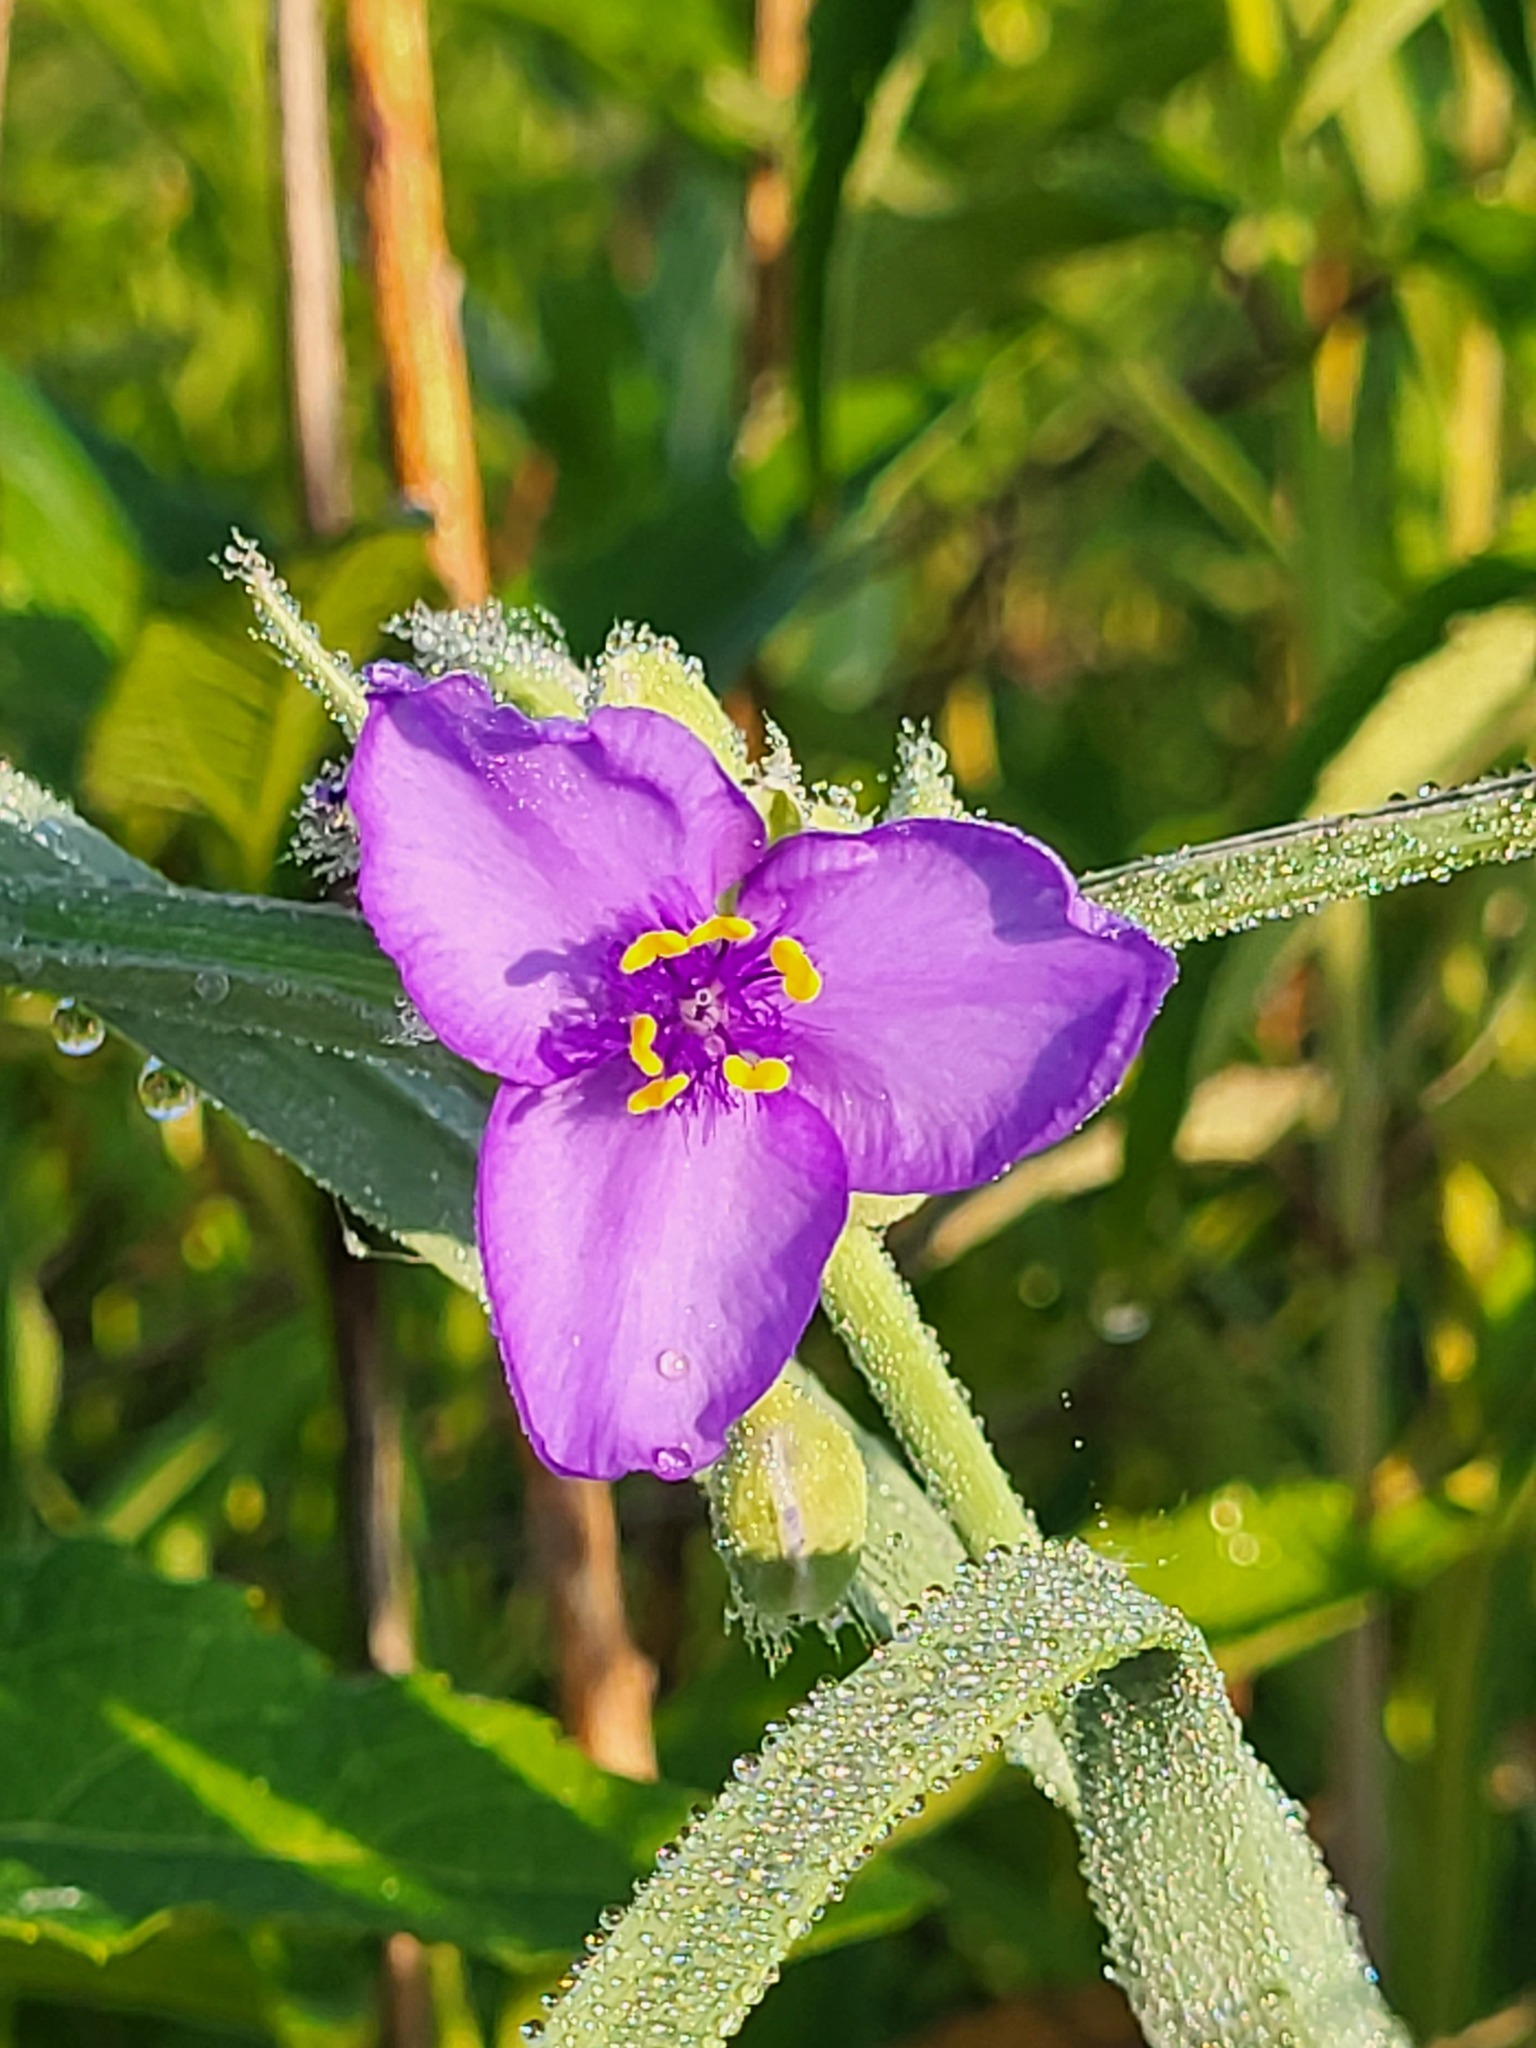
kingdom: Plantae
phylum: Tracheophyta
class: Liliopsida
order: Commelinales
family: Commelinaceae
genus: Tradescantia
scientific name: Tradescantia ohiensis
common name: Ohio spiderwort
